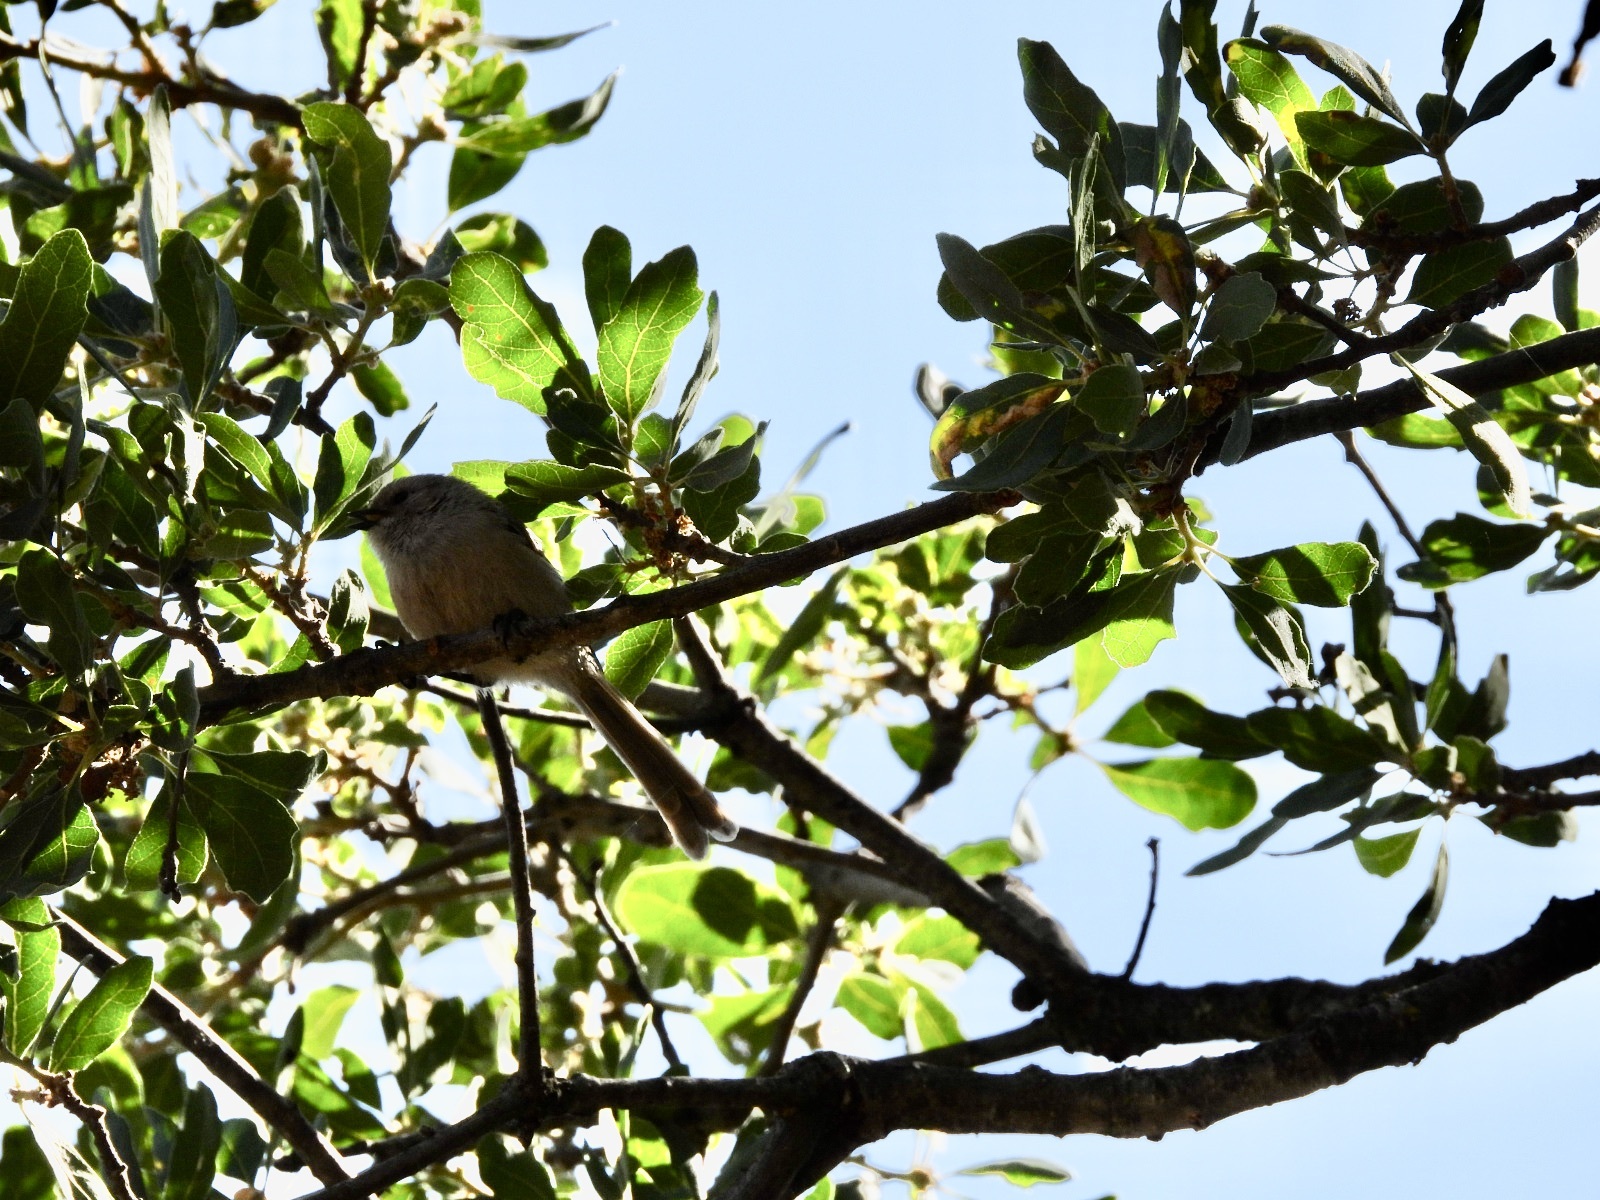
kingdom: Animalia
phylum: Chordata
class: Aves
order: Passeriformes
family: Aegithalidae
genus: Psaltriparus
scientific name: Psaltriparus minimus
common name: American bushtit
